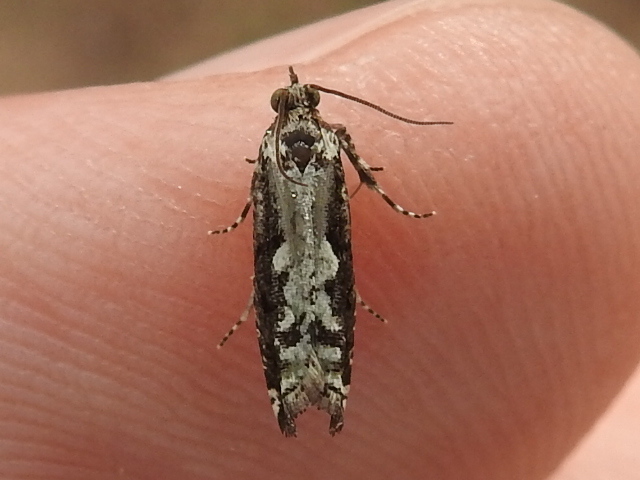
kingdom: Animalia
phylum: Arthropoda
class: Insecta
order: Lepidoptera
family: Tortricidae
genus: Chimoptesis
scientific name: Chimoptesis pennsylvaniana
